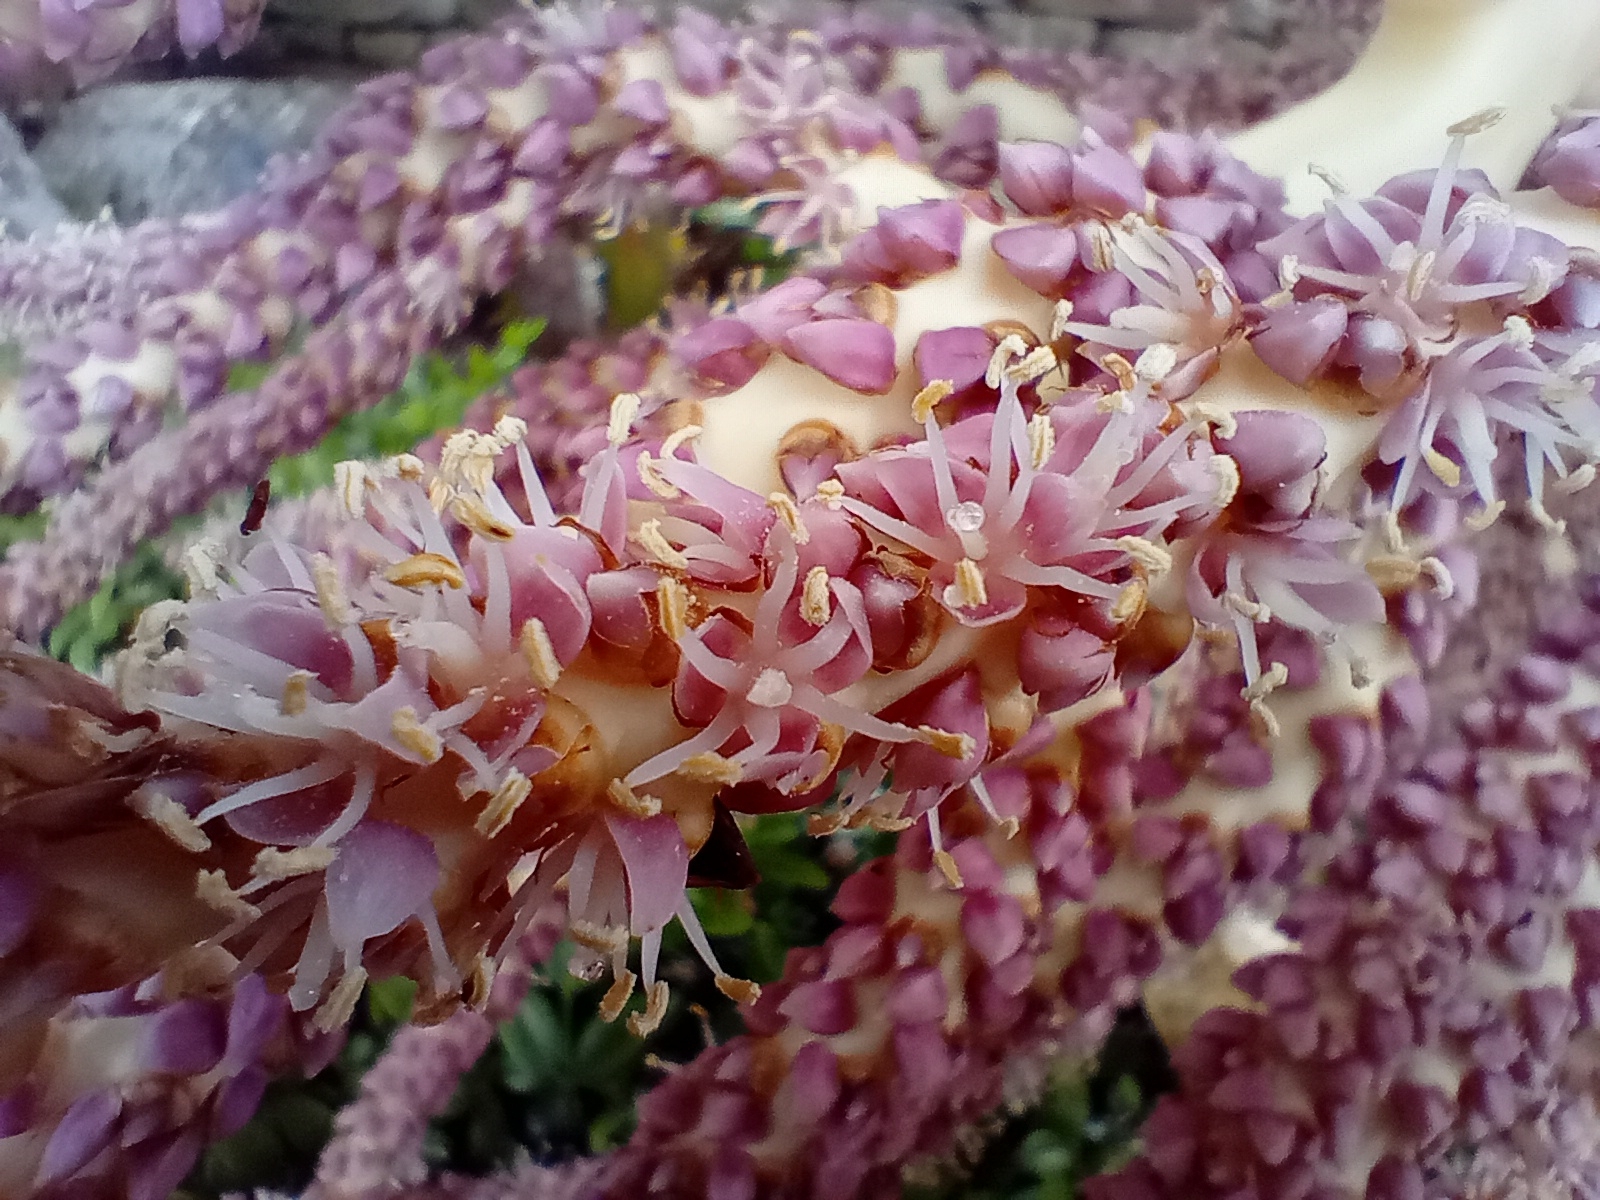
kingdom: Plantae
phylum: Tracheophyta
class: Liliopsida
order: Arecales
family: Arecaceae
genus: Rhopalostylis
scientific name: Rhopalostylis sapida
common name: Feather-duster palm
